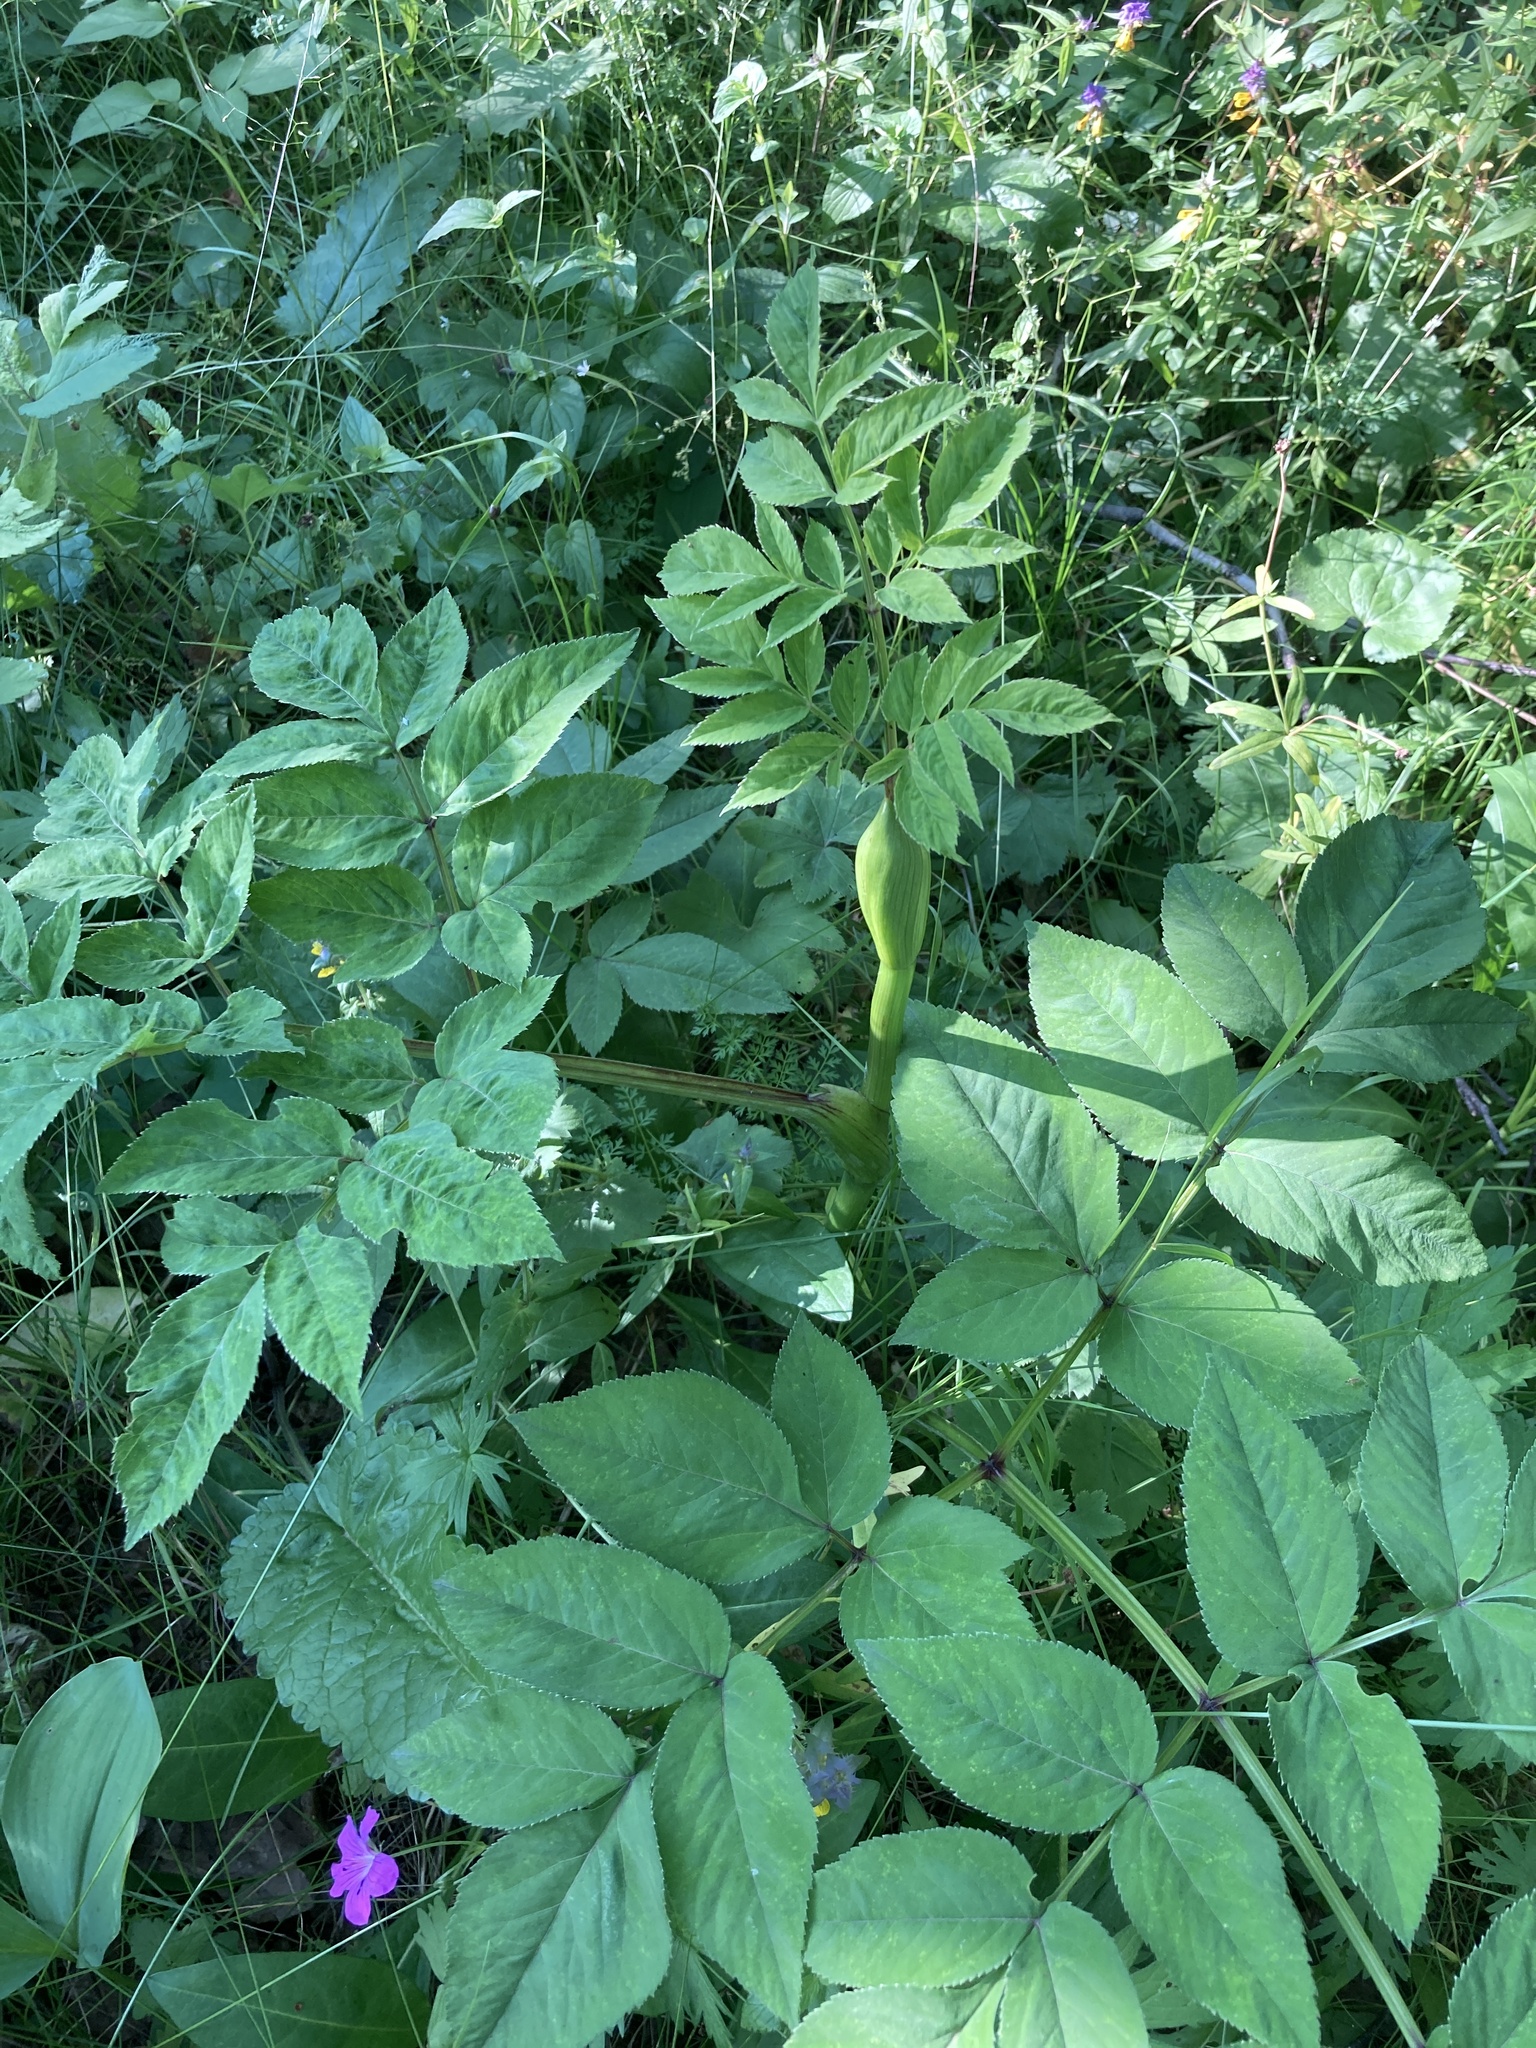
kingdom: Plantae
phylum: Tracheophyta
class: Magnoliopsida
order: Apiales
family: Apiaceae
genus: Angelica
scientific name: Angelica sylvestris
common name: Wild angelica
